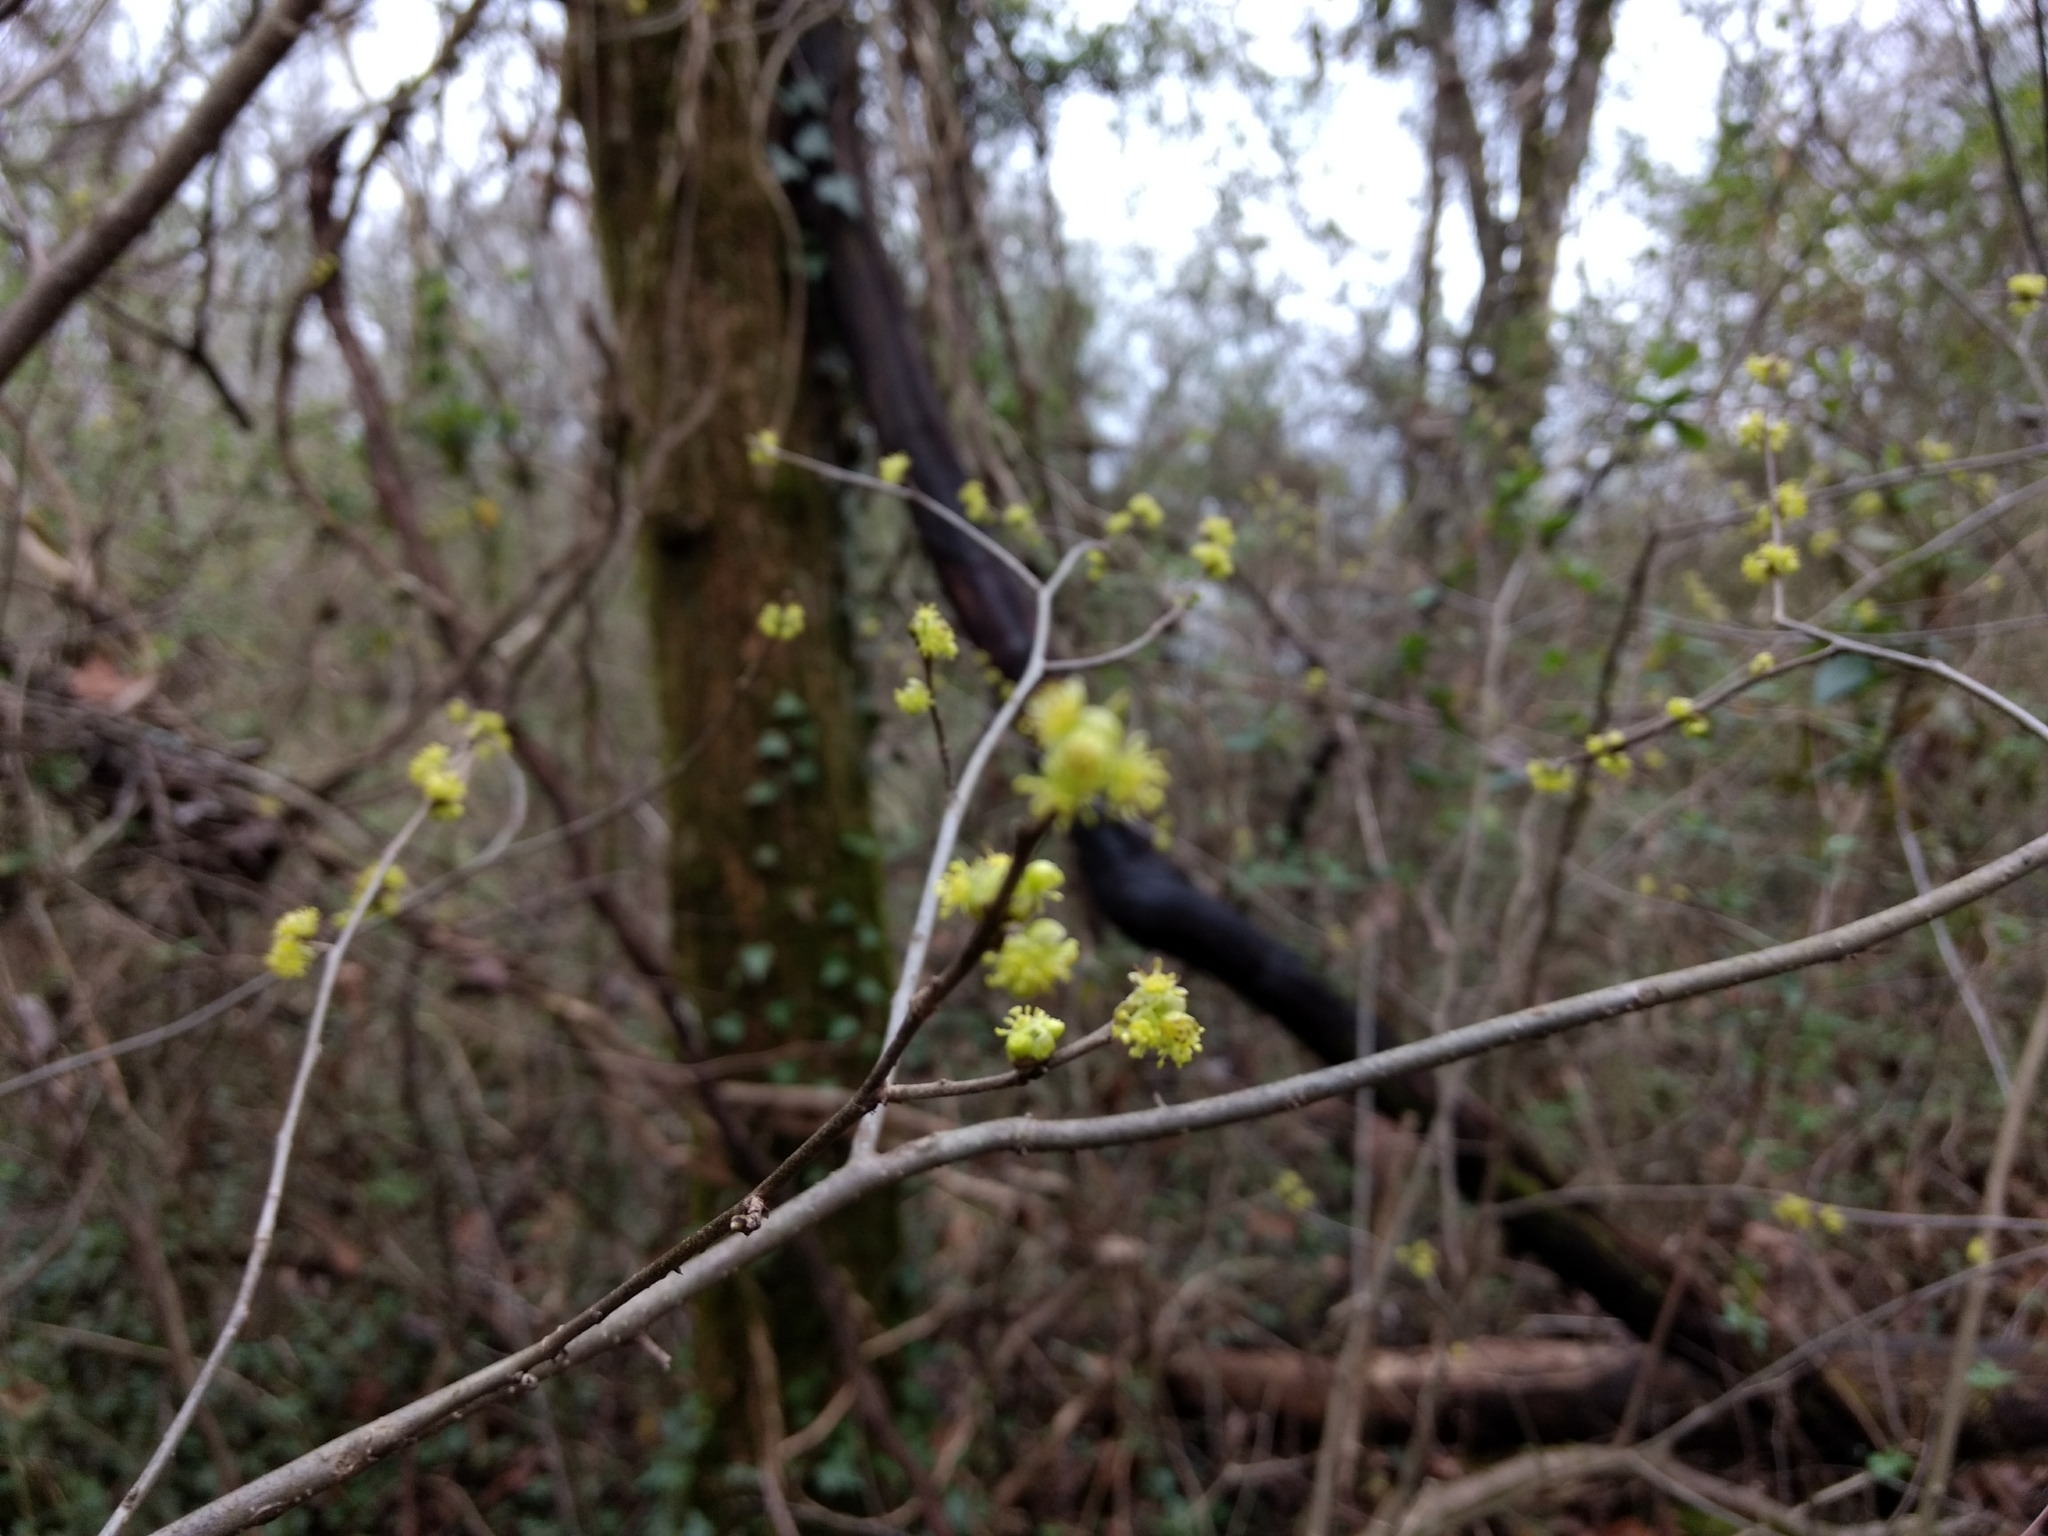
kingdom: Plantae
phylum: Tracheophyta
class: Magnoliopsida
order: Laurales
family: Lauraceae
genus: Lindera
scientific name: Lindera benzoin
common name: Spicebush
